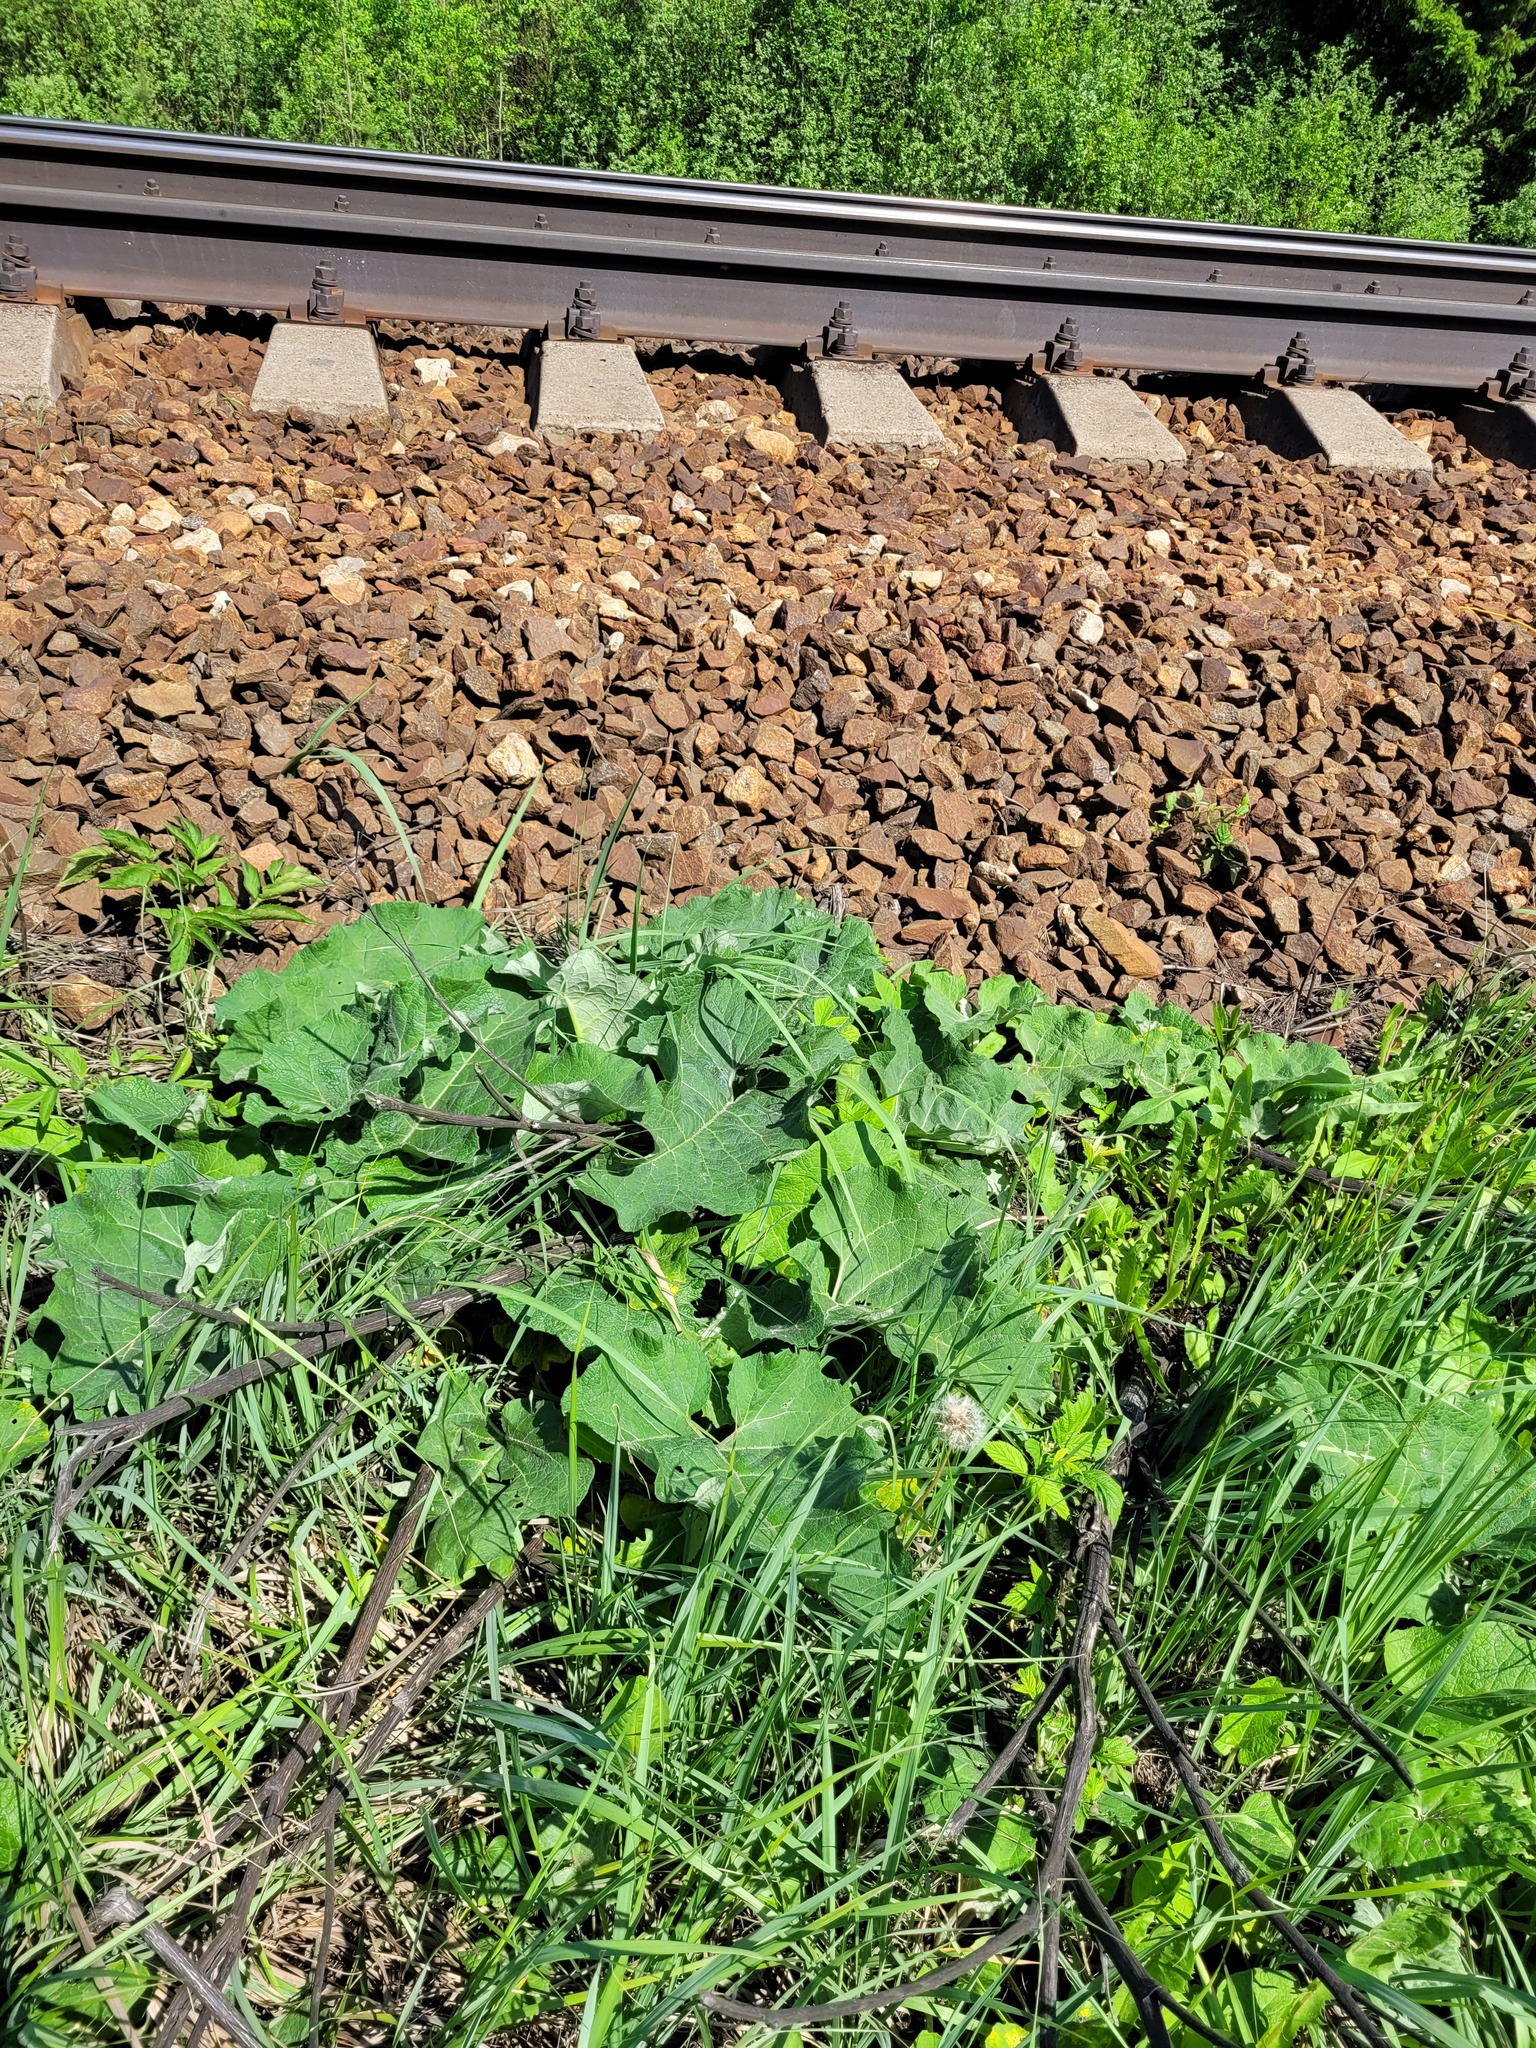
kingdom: Plantae
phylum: Tracheophyta
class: Magnoliopsida
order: Asterales
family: Asteraceae
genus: Arctium
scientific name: Arctium tomentosum
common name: Woolly burdock
